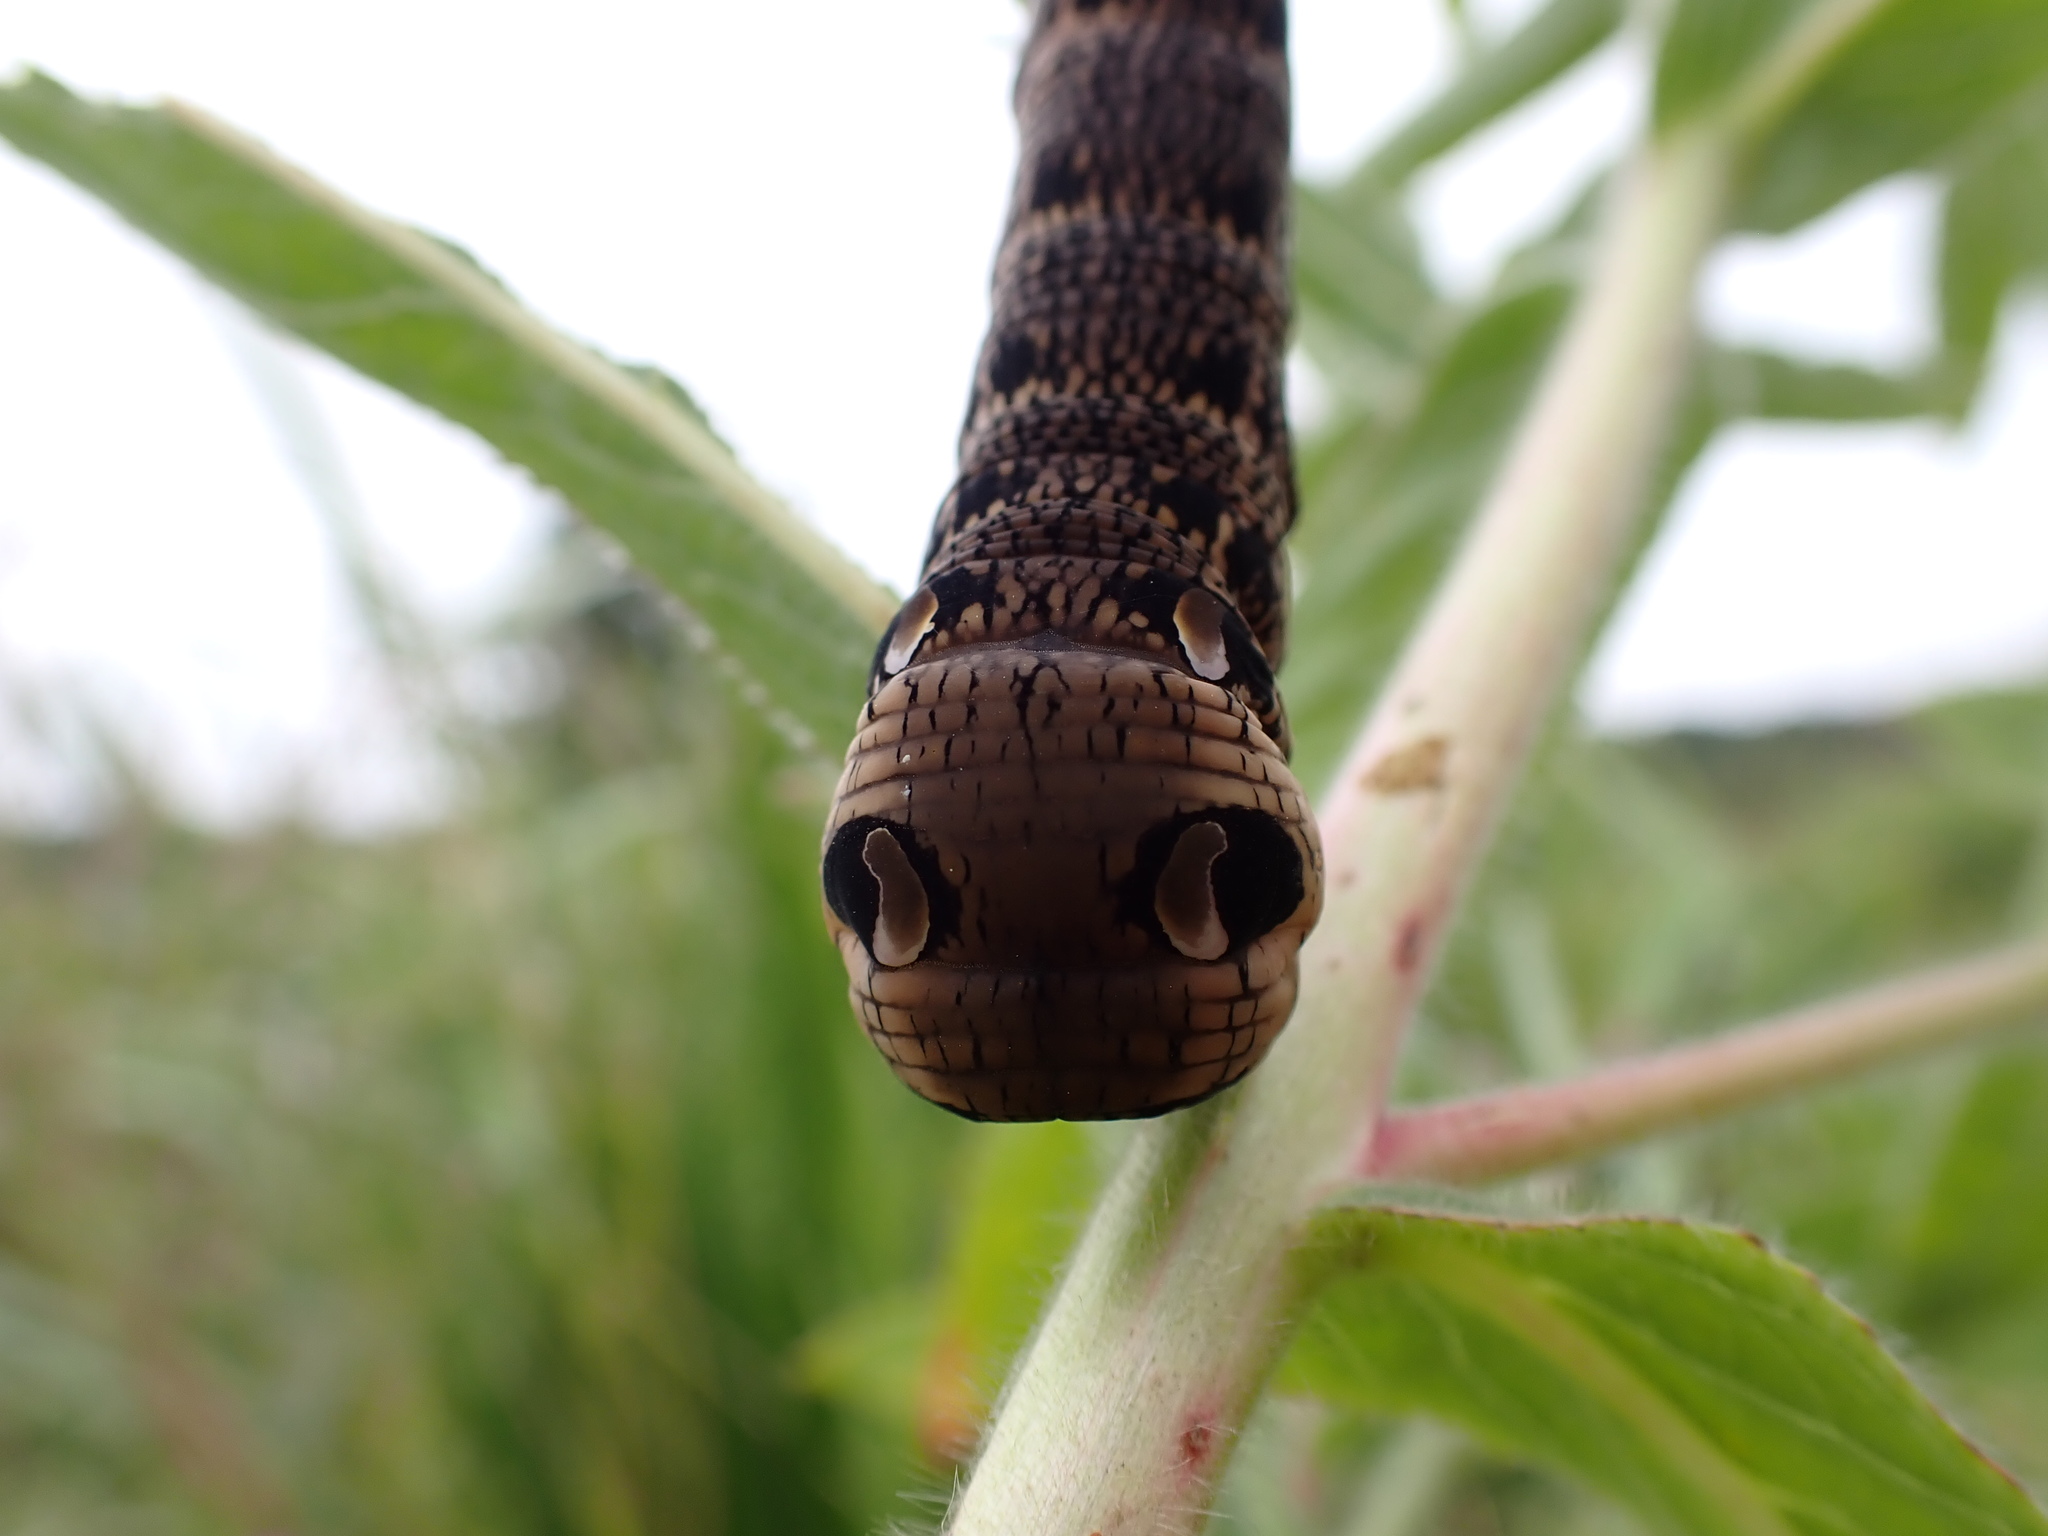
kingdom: Animalia
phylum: Arthropoda
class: Insecta
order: Lepidoptera
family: Sphingidae
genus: Deilephila
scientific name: Deilephila elpenor
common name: Elephant hawk-moth
